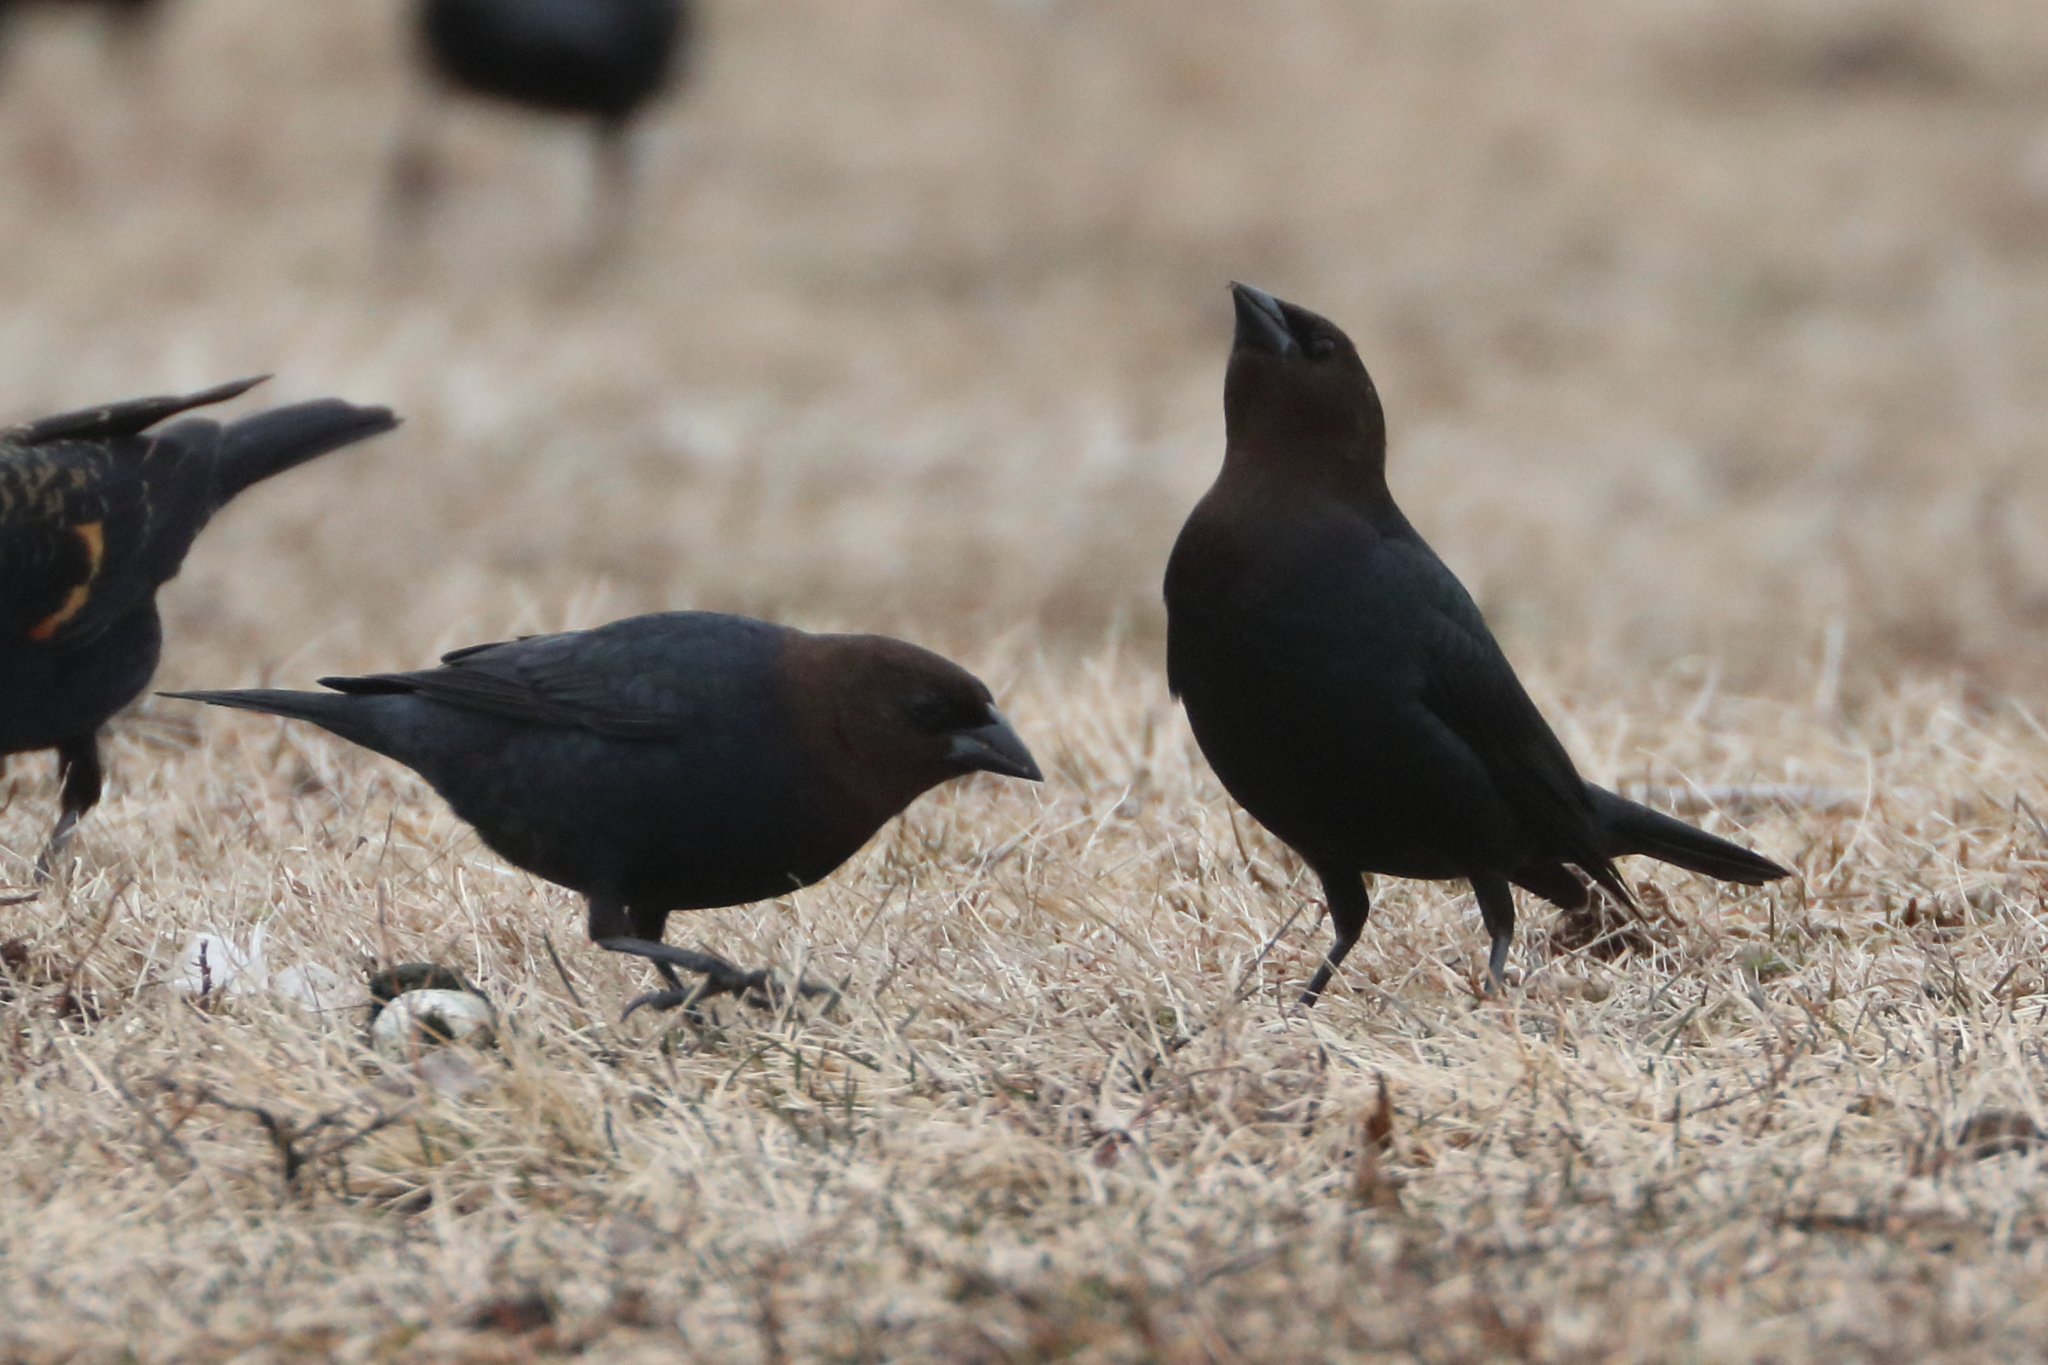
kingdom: Animalia
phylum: Chordata
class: Aves
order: Passeriformes
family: Icteridae
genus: Molothrus
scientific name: Molothrus ater
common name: Brown-headed cowbird
